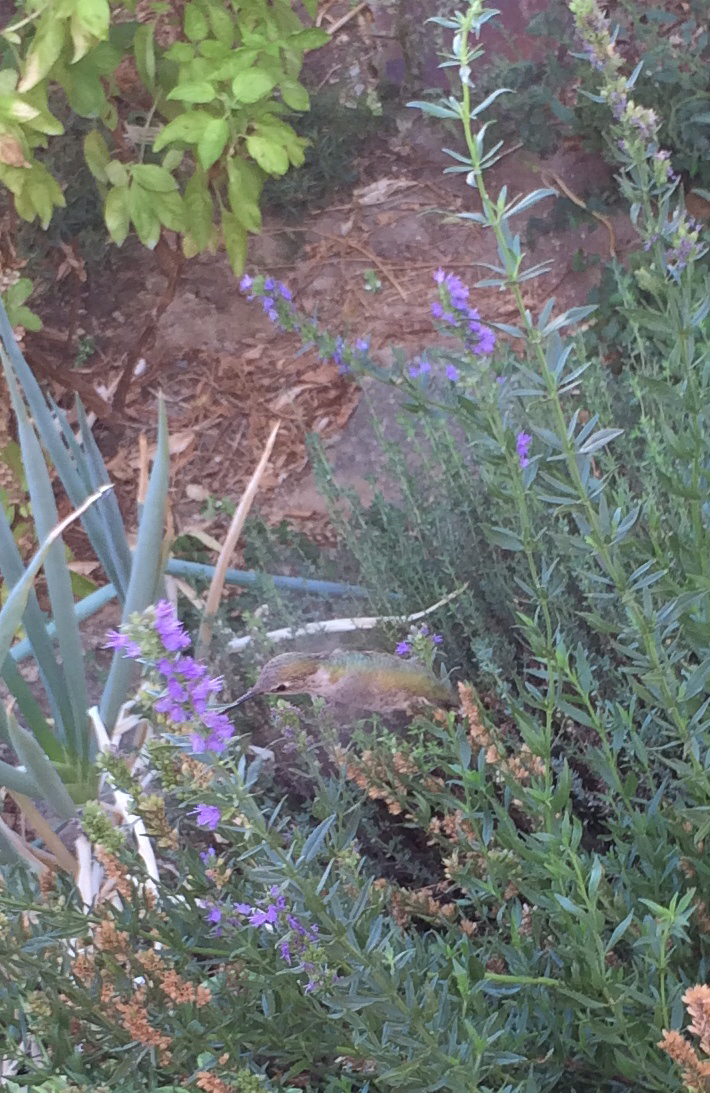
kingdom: Animalia
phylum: Chordata
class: Aves
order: Apodiformes
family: Trochilidae
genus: Selasphorus
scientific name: Selasphorus sasin
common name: Allen's hummingbird
